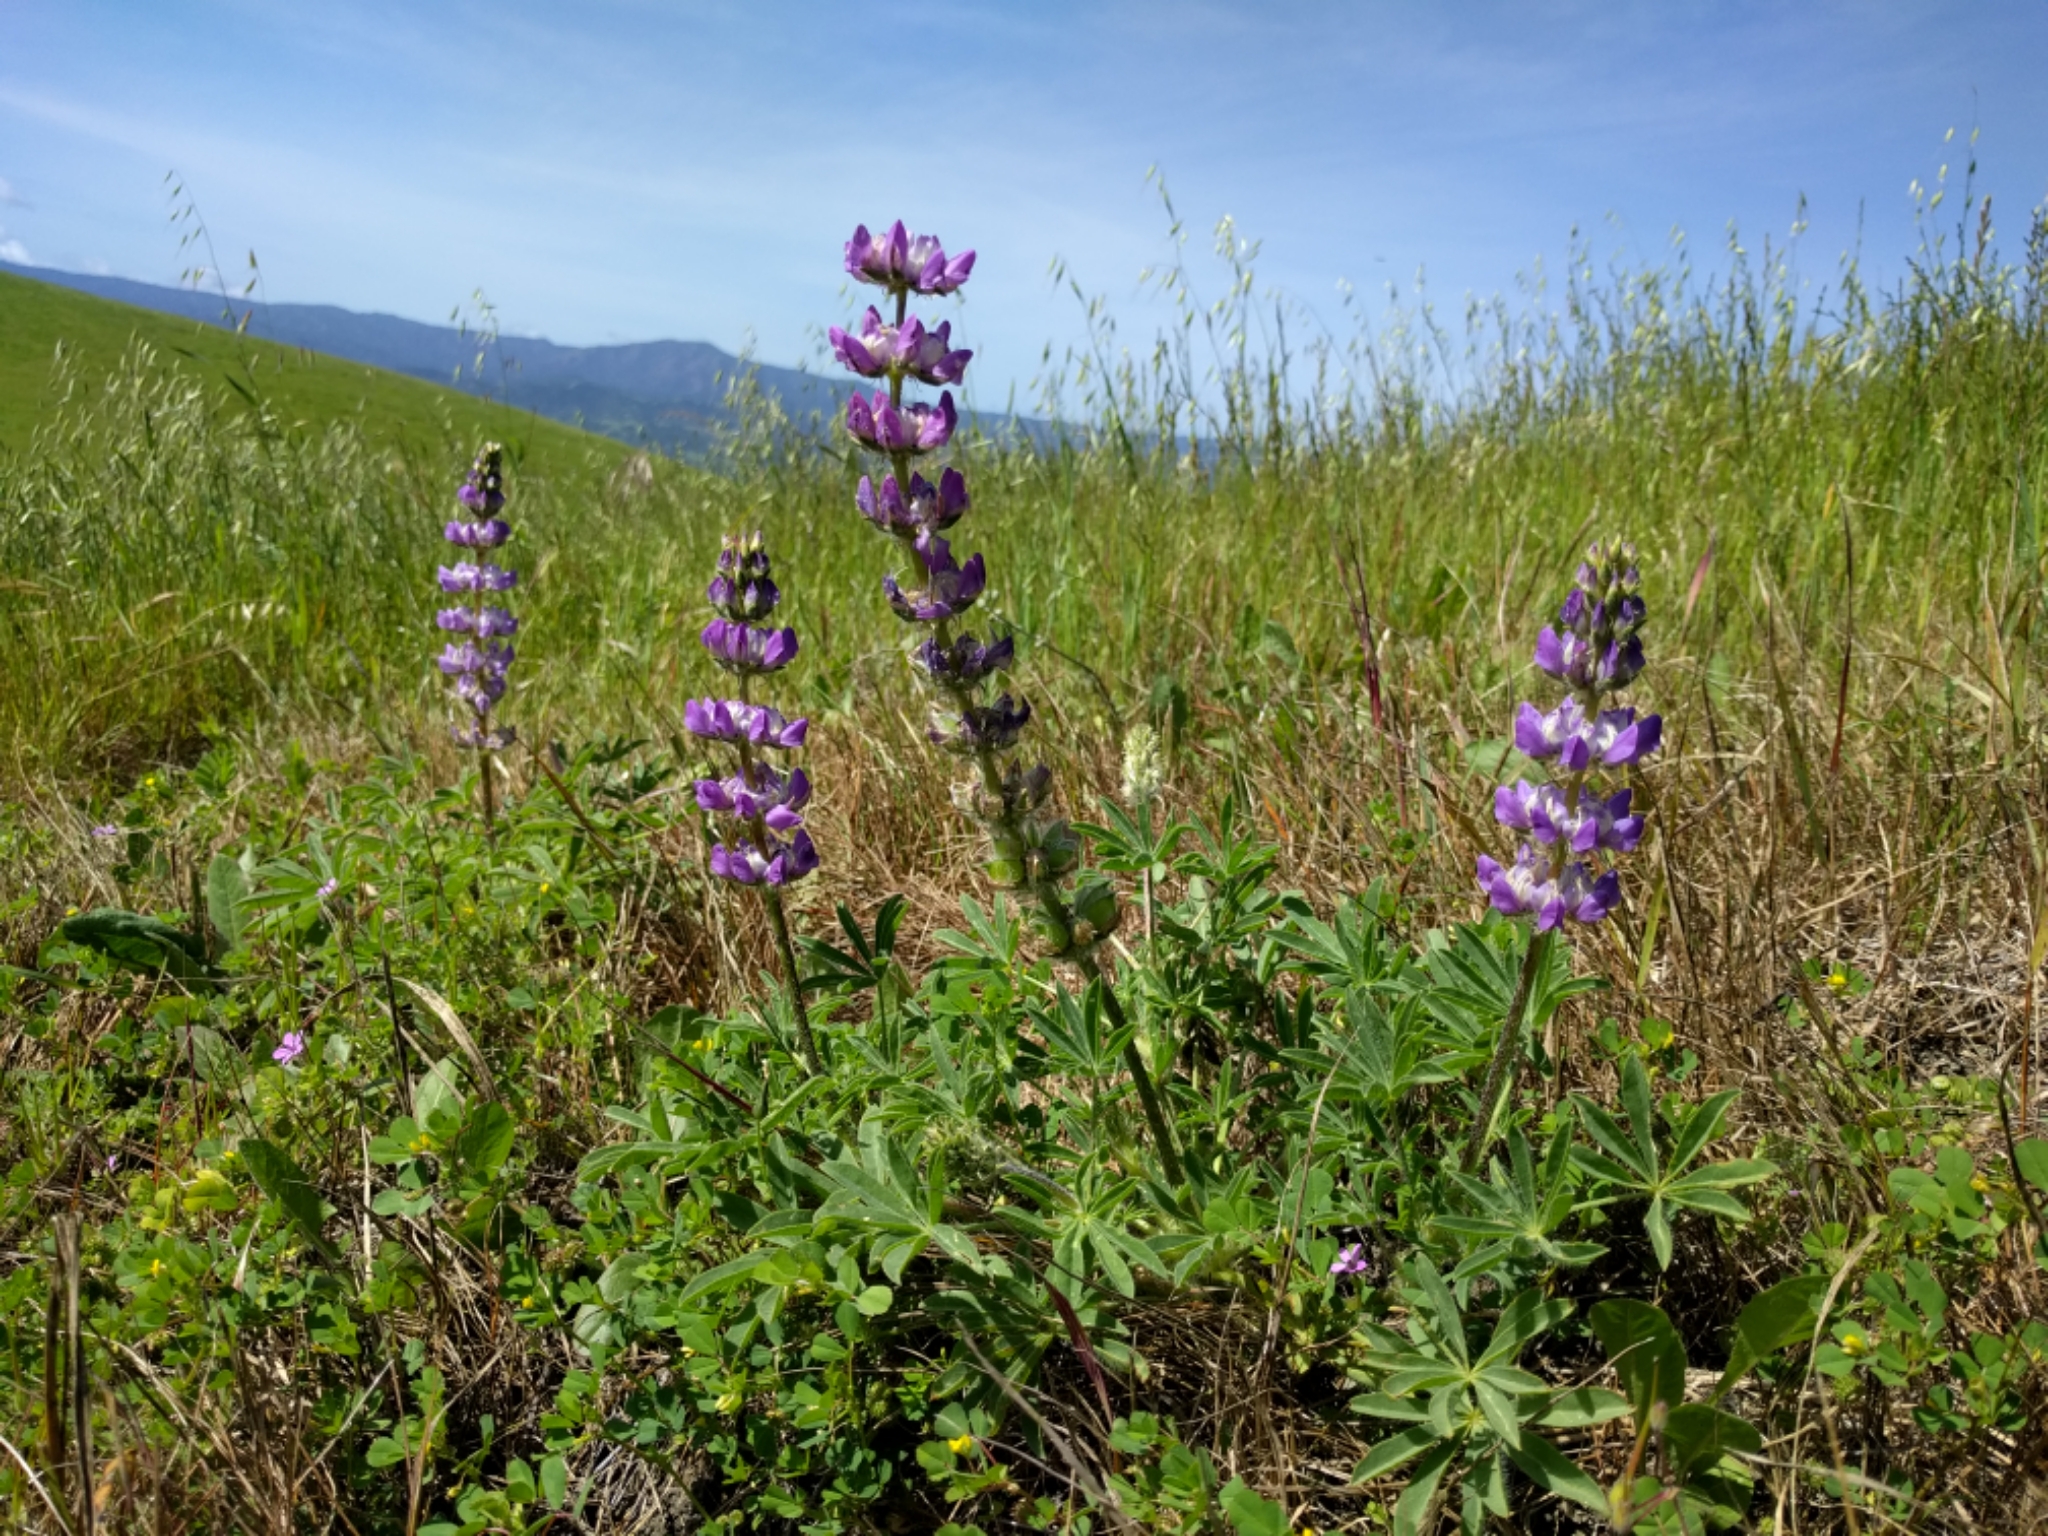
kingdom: Plantae
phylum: Tracheophyta
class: Magnoliopsida
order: Fabales
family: Fabaceae
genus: Lupinus
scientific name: Lupinus microcarpus
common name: Chick lupine
